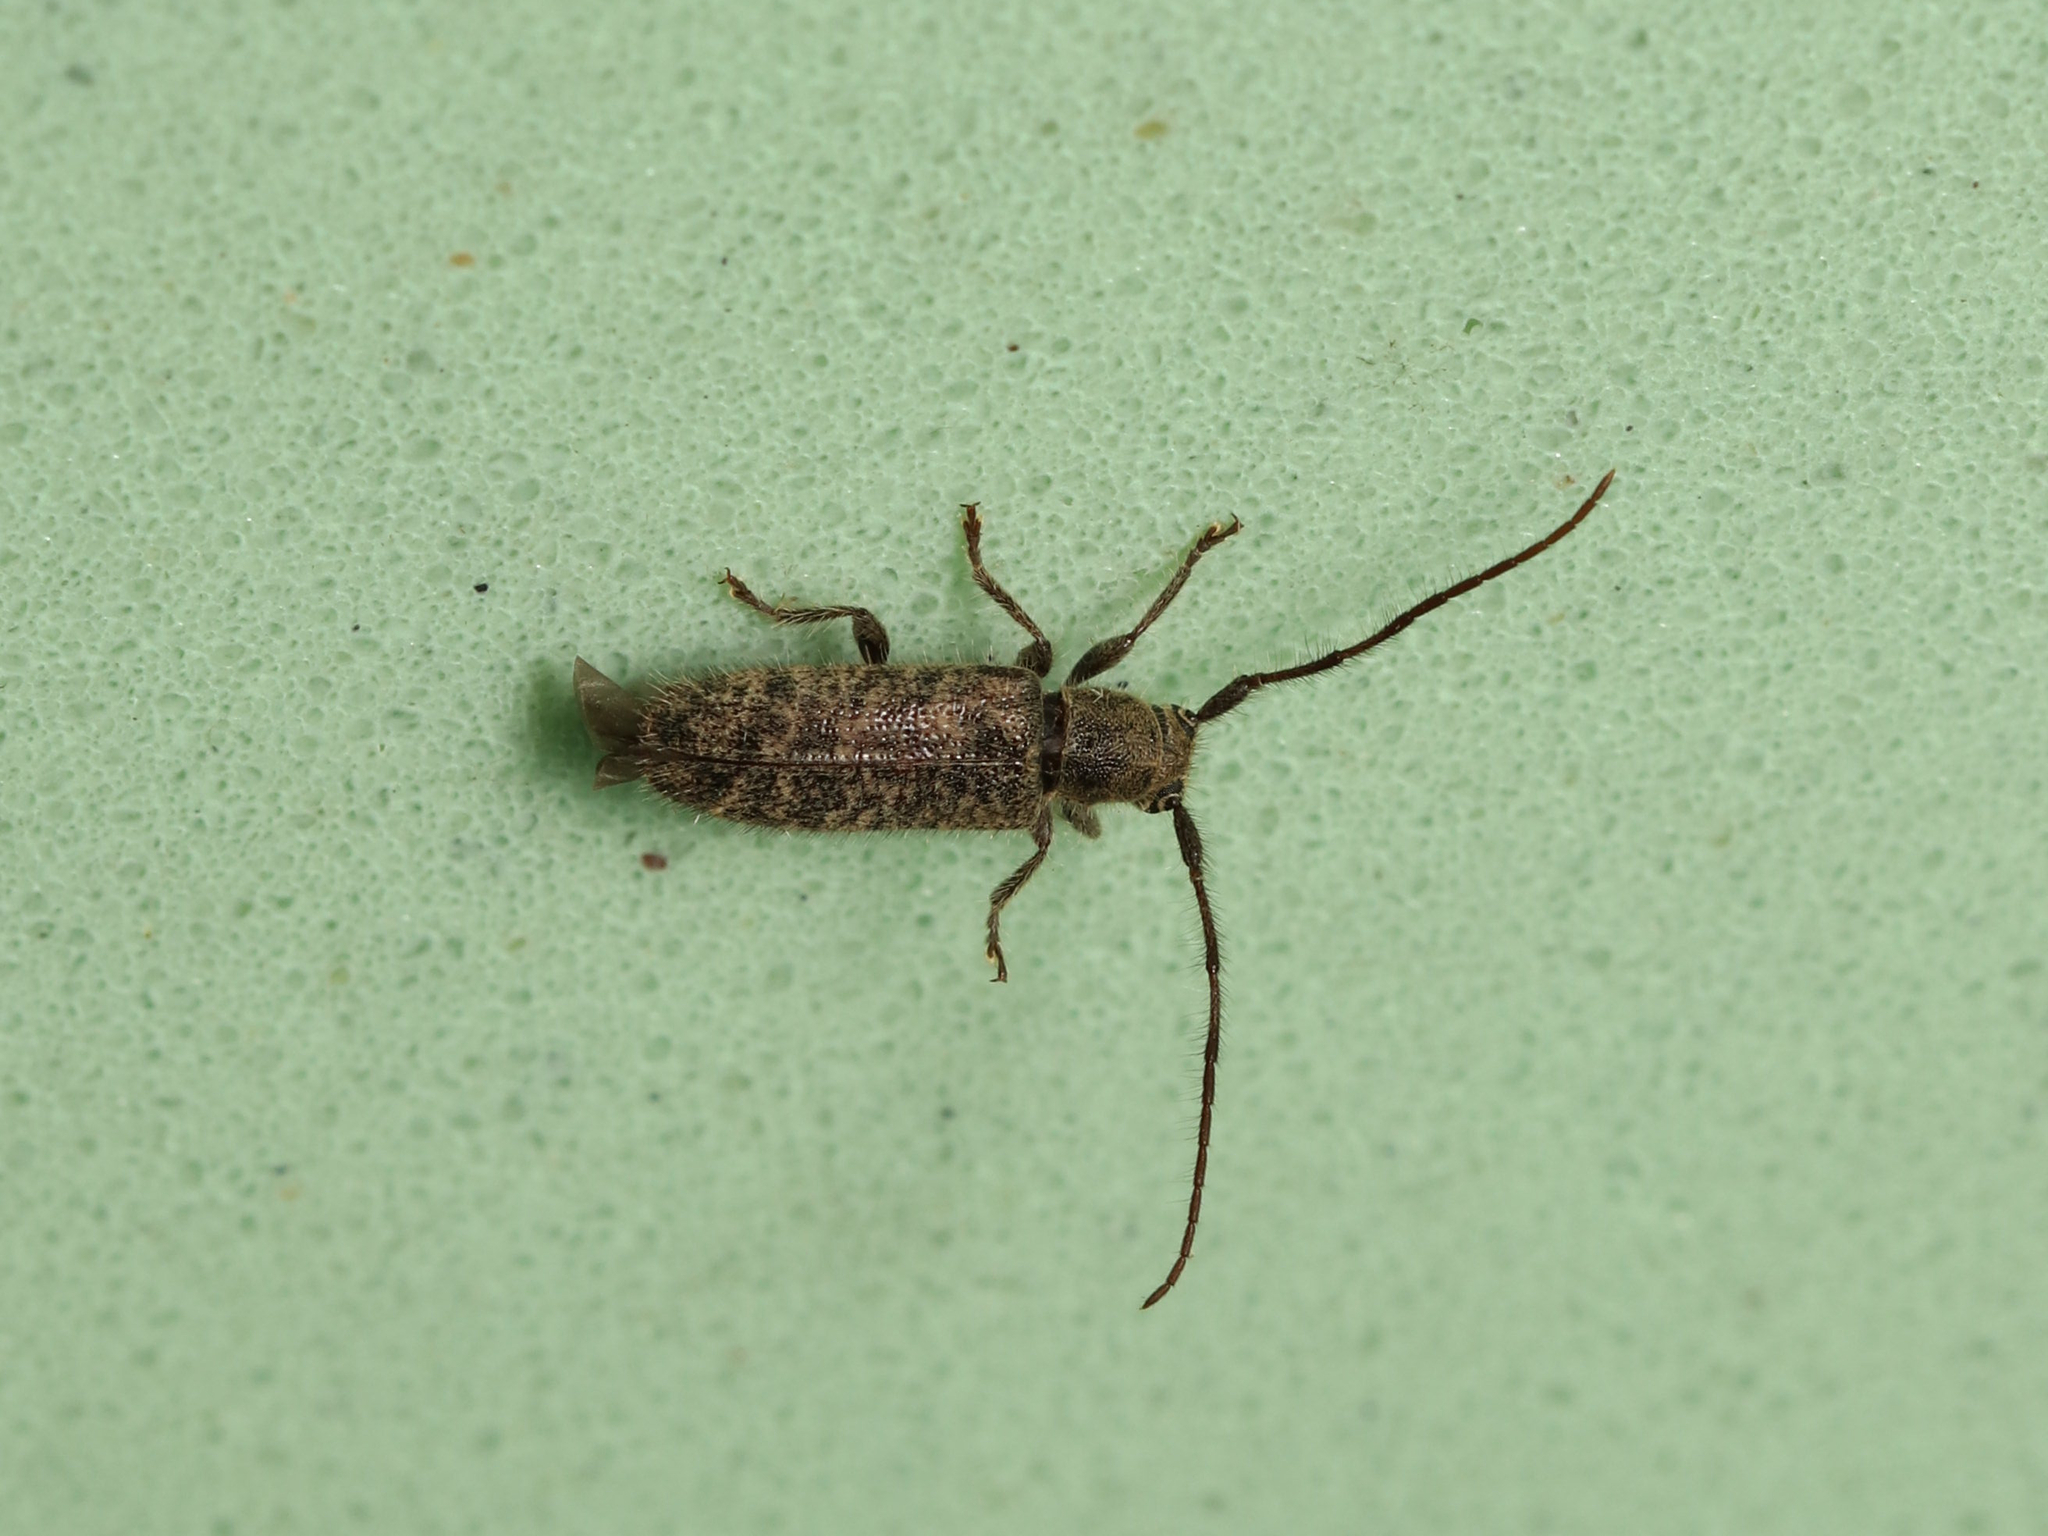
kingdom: Animalia
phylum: Arthropoda
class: Insecta
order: Coleoptera
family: Cerambycidae
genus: Eupogonius
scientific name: Eupogonius pauper
